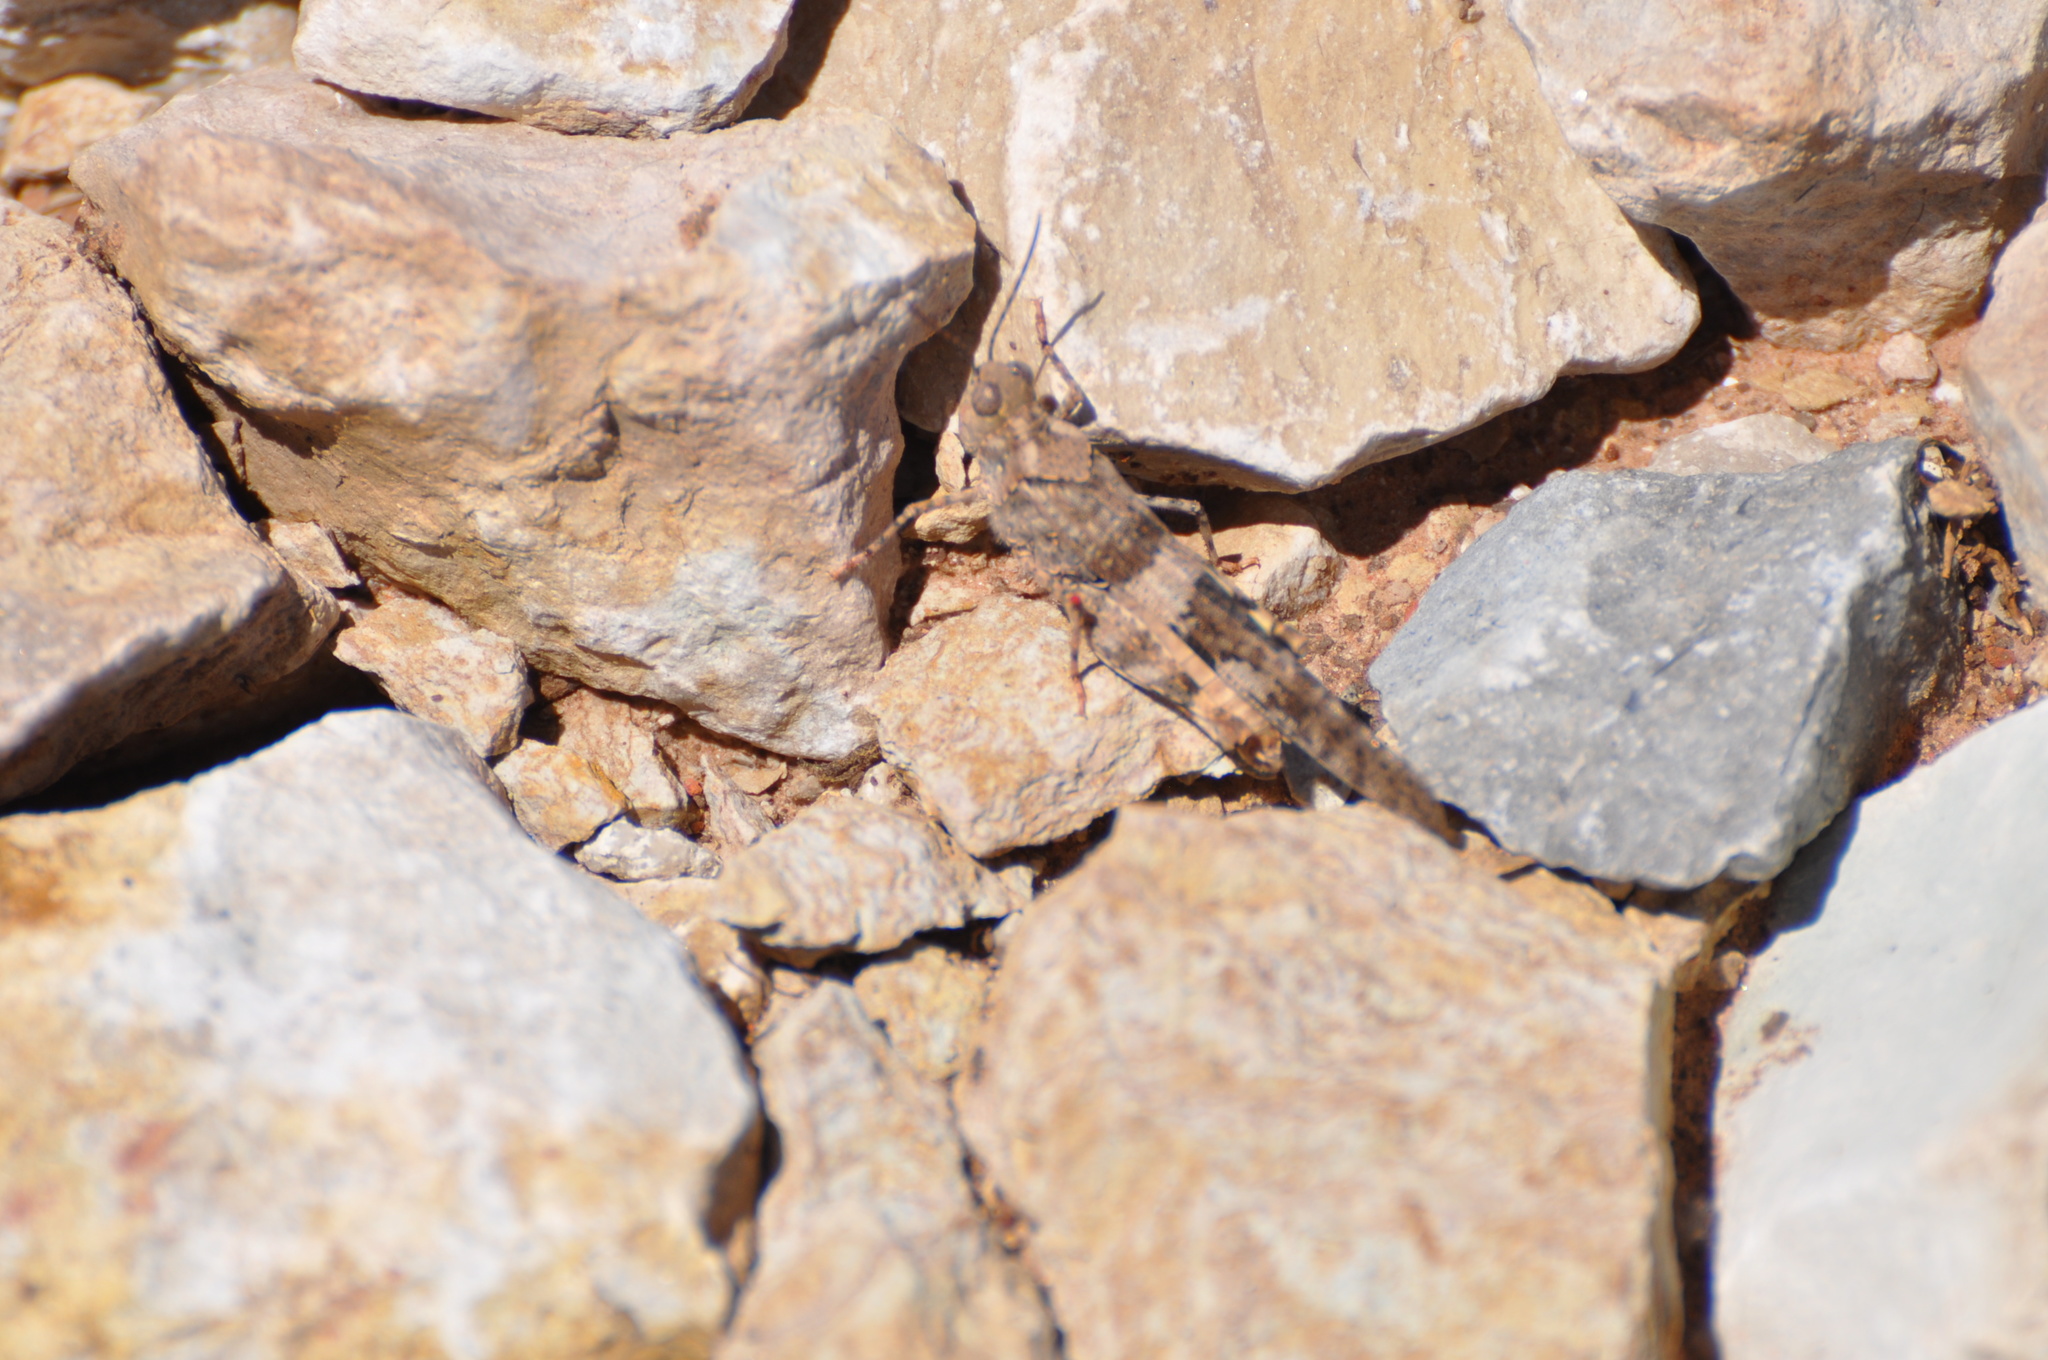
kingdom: Animalia
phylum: Arthropoda
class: Insecta
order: Orthoptera
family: Acrididae
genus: Trimerotropis
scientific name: Trimerotropis pallidipennis
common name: Pallid-winged grasshopper
